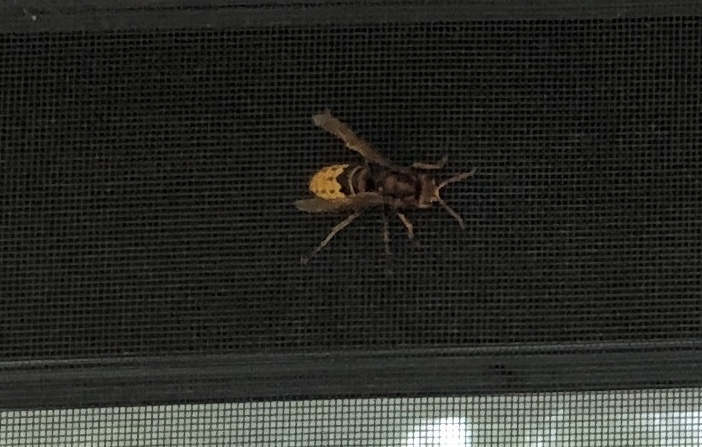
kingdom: Animalia
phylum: Arthropoda
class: Insecta
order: Hymenoptera
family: Vespidae
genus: Vespa
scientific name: Vespa crabro
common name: Hornet
